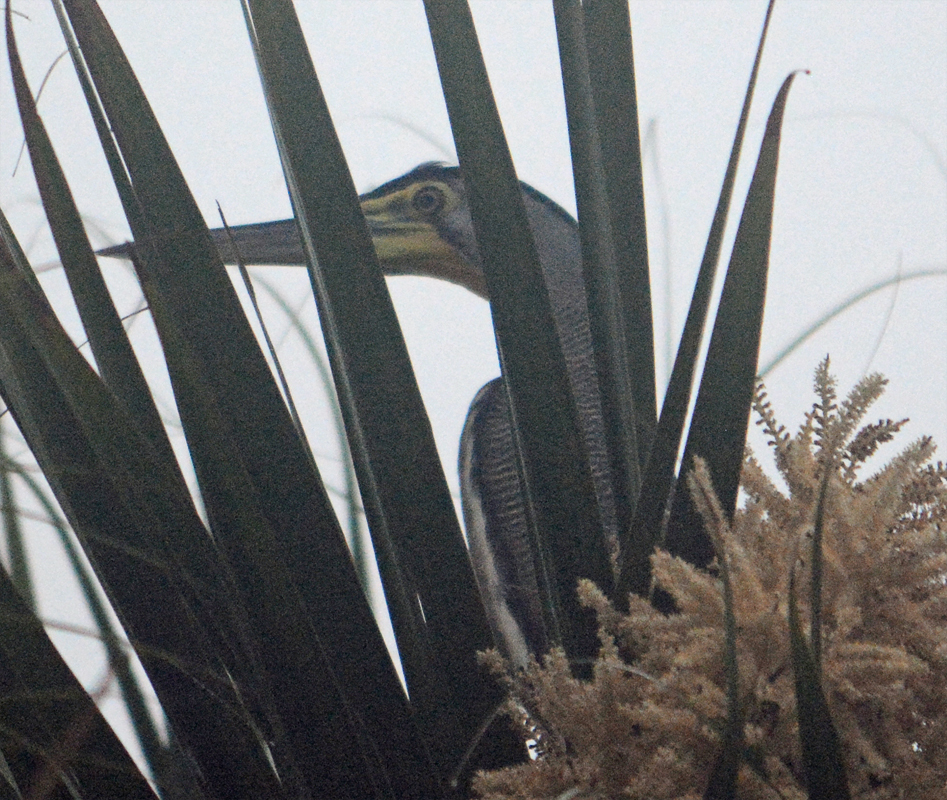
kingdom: Animalia
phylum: Chordata
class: Aves
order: Pelecaniformes
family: Ardeidae
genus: Tigrisoma
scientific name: Tigrisoma mexicanum
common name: Bare-throated tiger-heron
